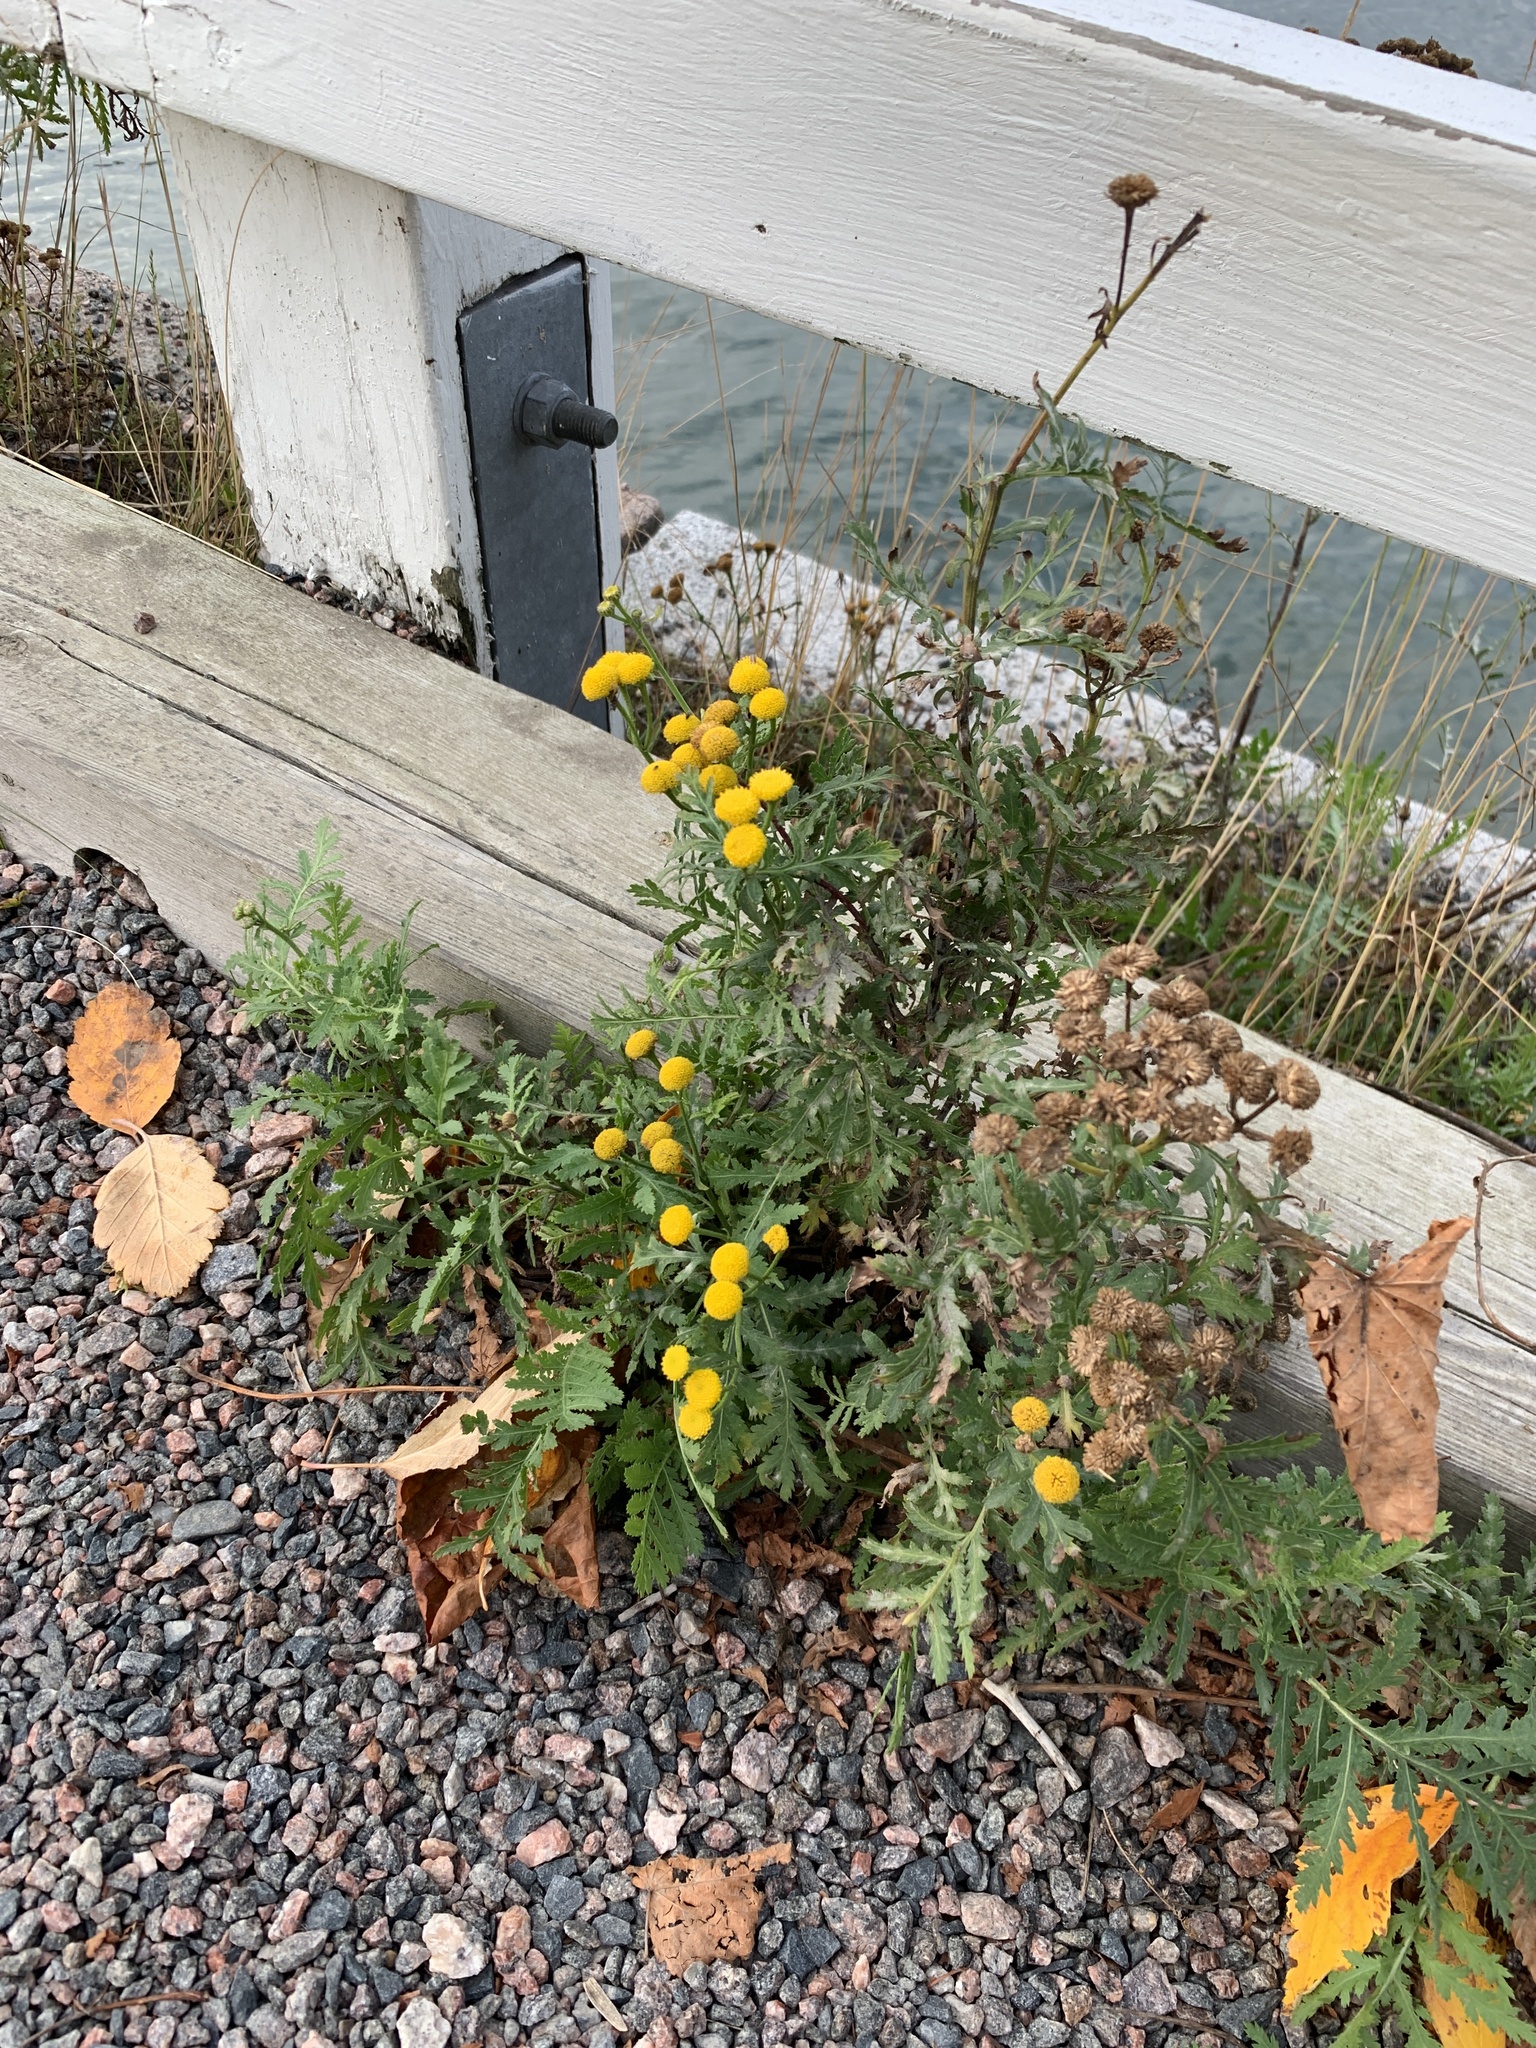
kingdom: Plantae
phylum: Tracheophyta
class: Magnoliopsida
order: Asterales
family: Asteraceae
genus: Tanacetum
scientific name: Tanacetum vulgare
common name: Common tansy
